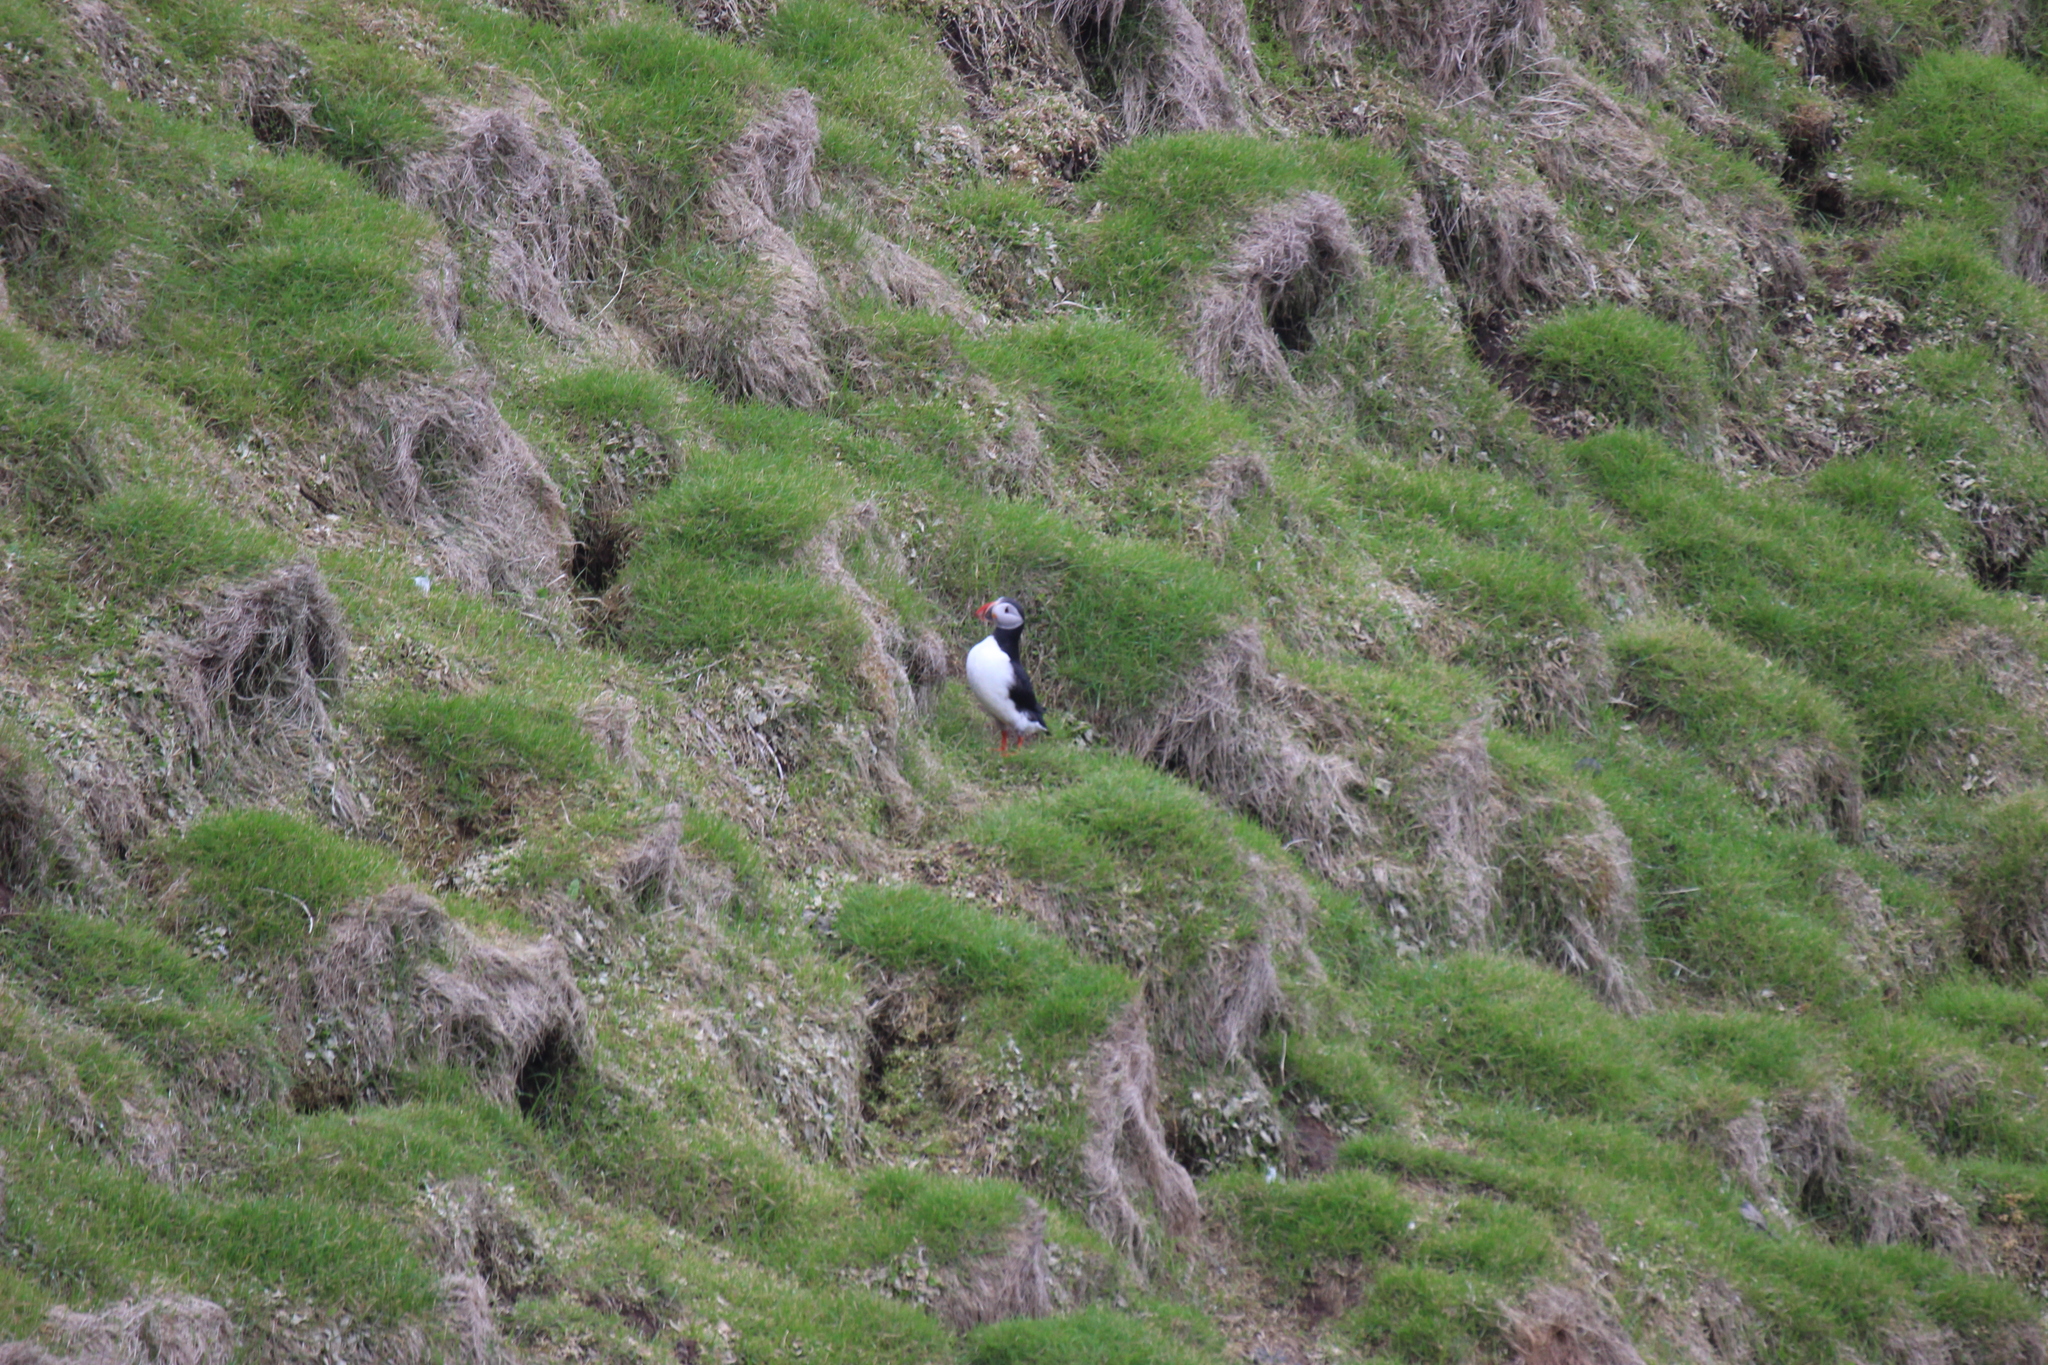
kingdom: Animalia
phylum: Chordata
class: Aves
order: Charadriiformes
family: Alcidae
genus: Fratercula
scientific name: Fratercula arctica
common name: Atlantic puffin
